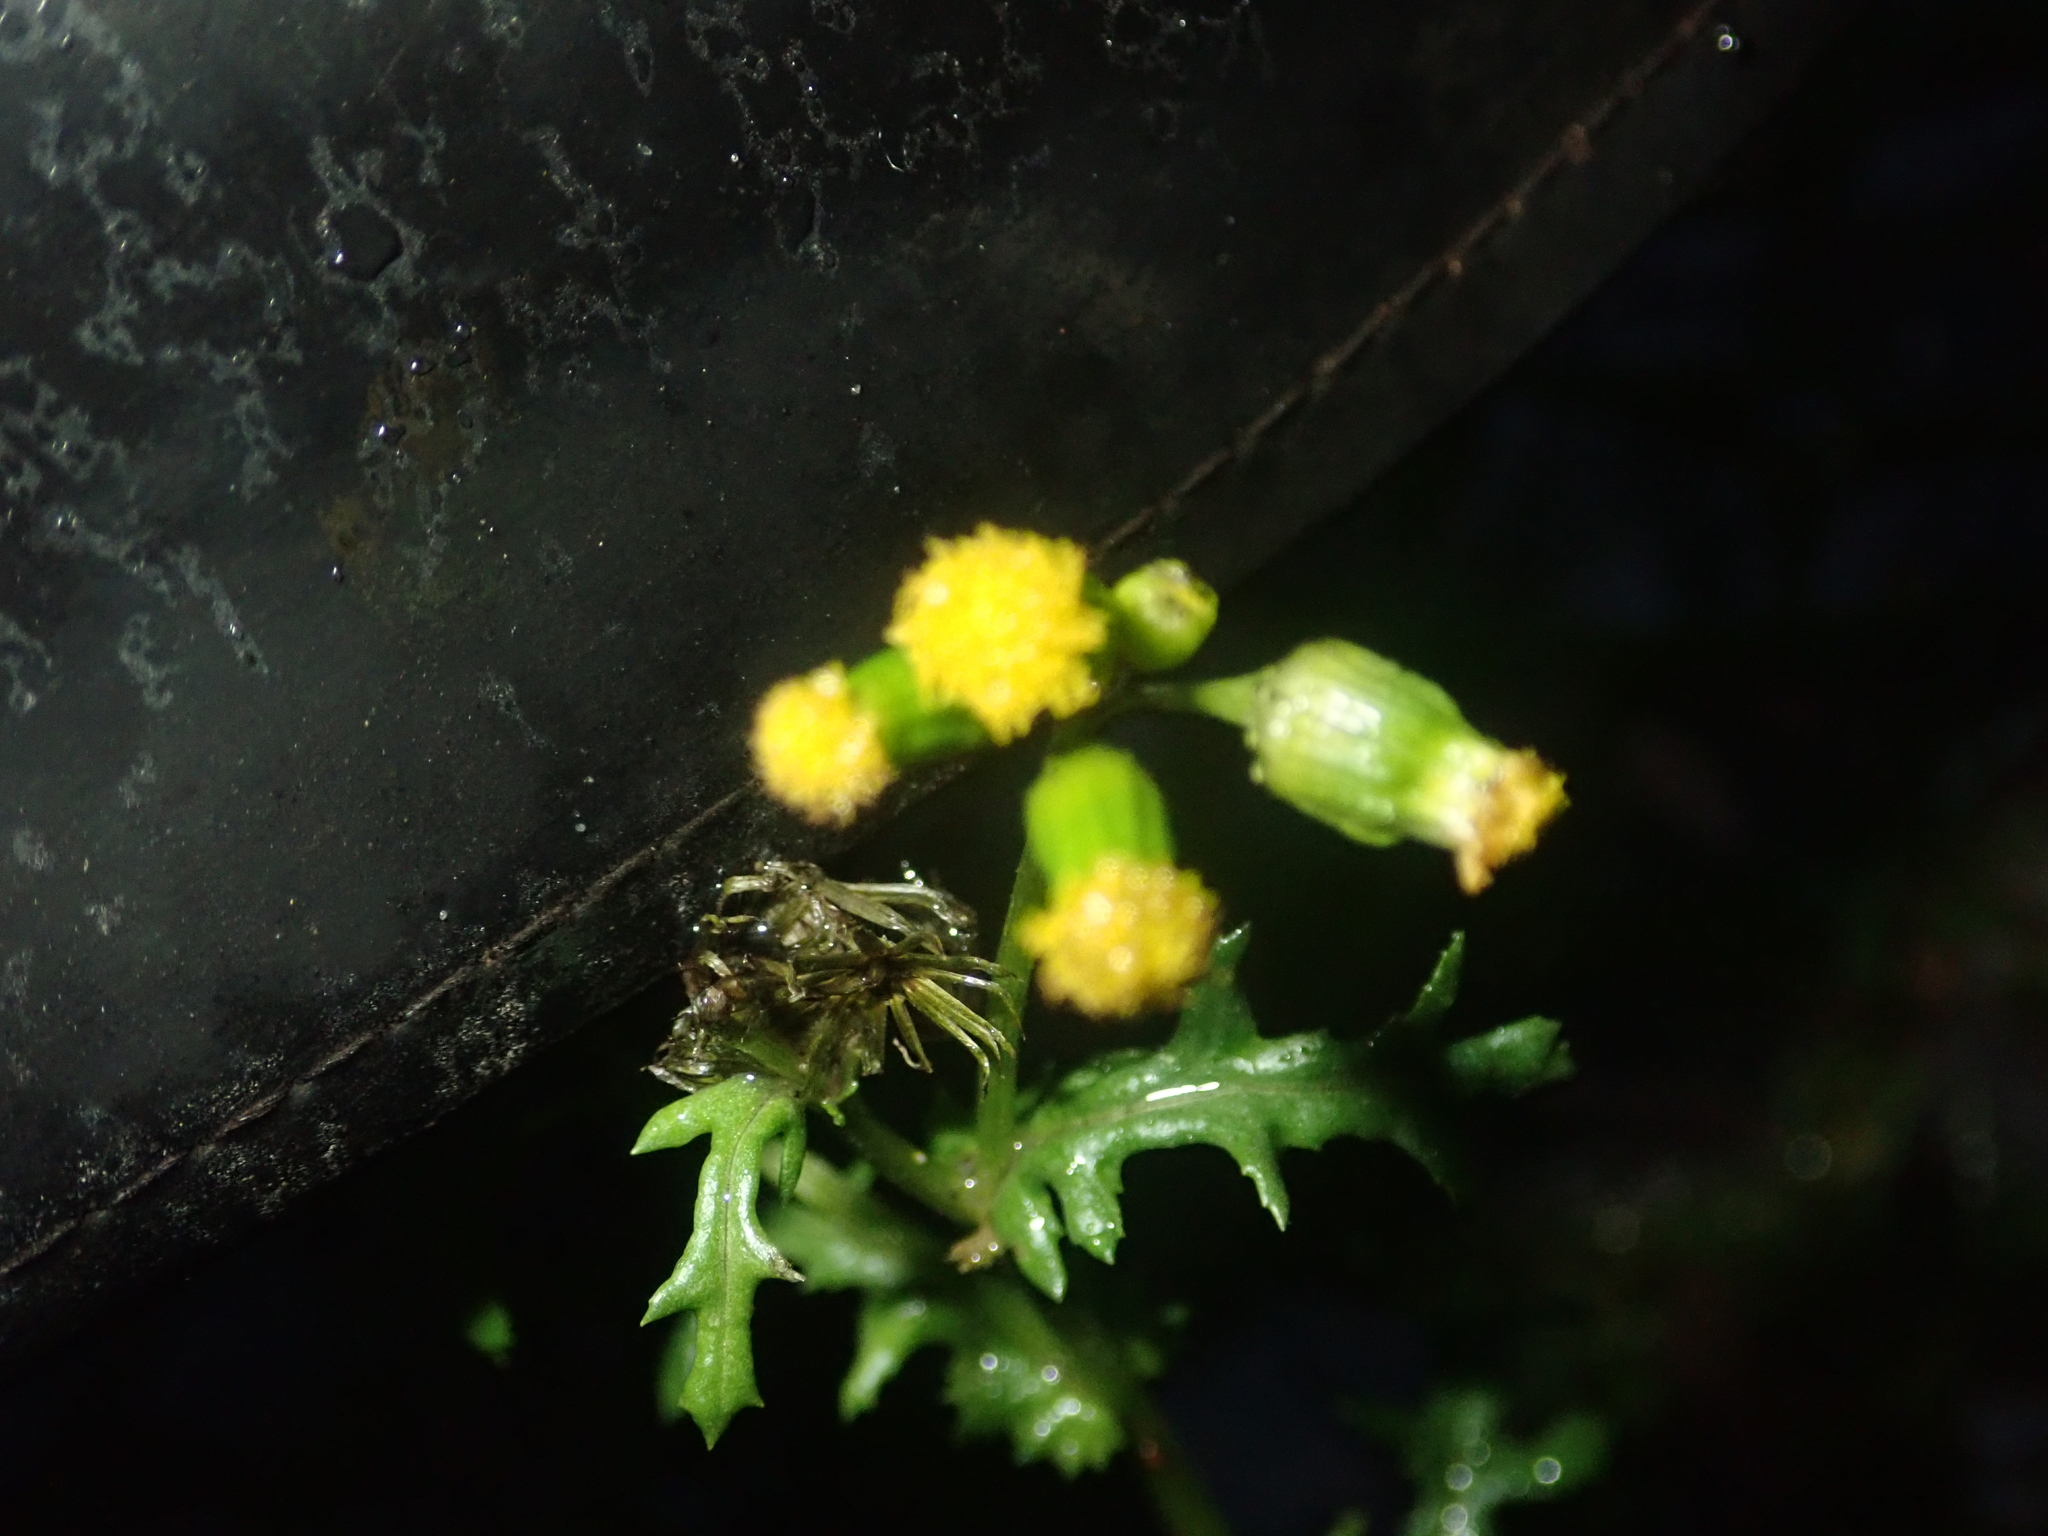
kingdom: Plantae
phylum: Tracheophyta
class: Magnoliopsida
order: Asterales
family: Asteraceae
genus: Senecio
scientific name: Senecio vulgaris
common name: Old-man-in-the-spring
